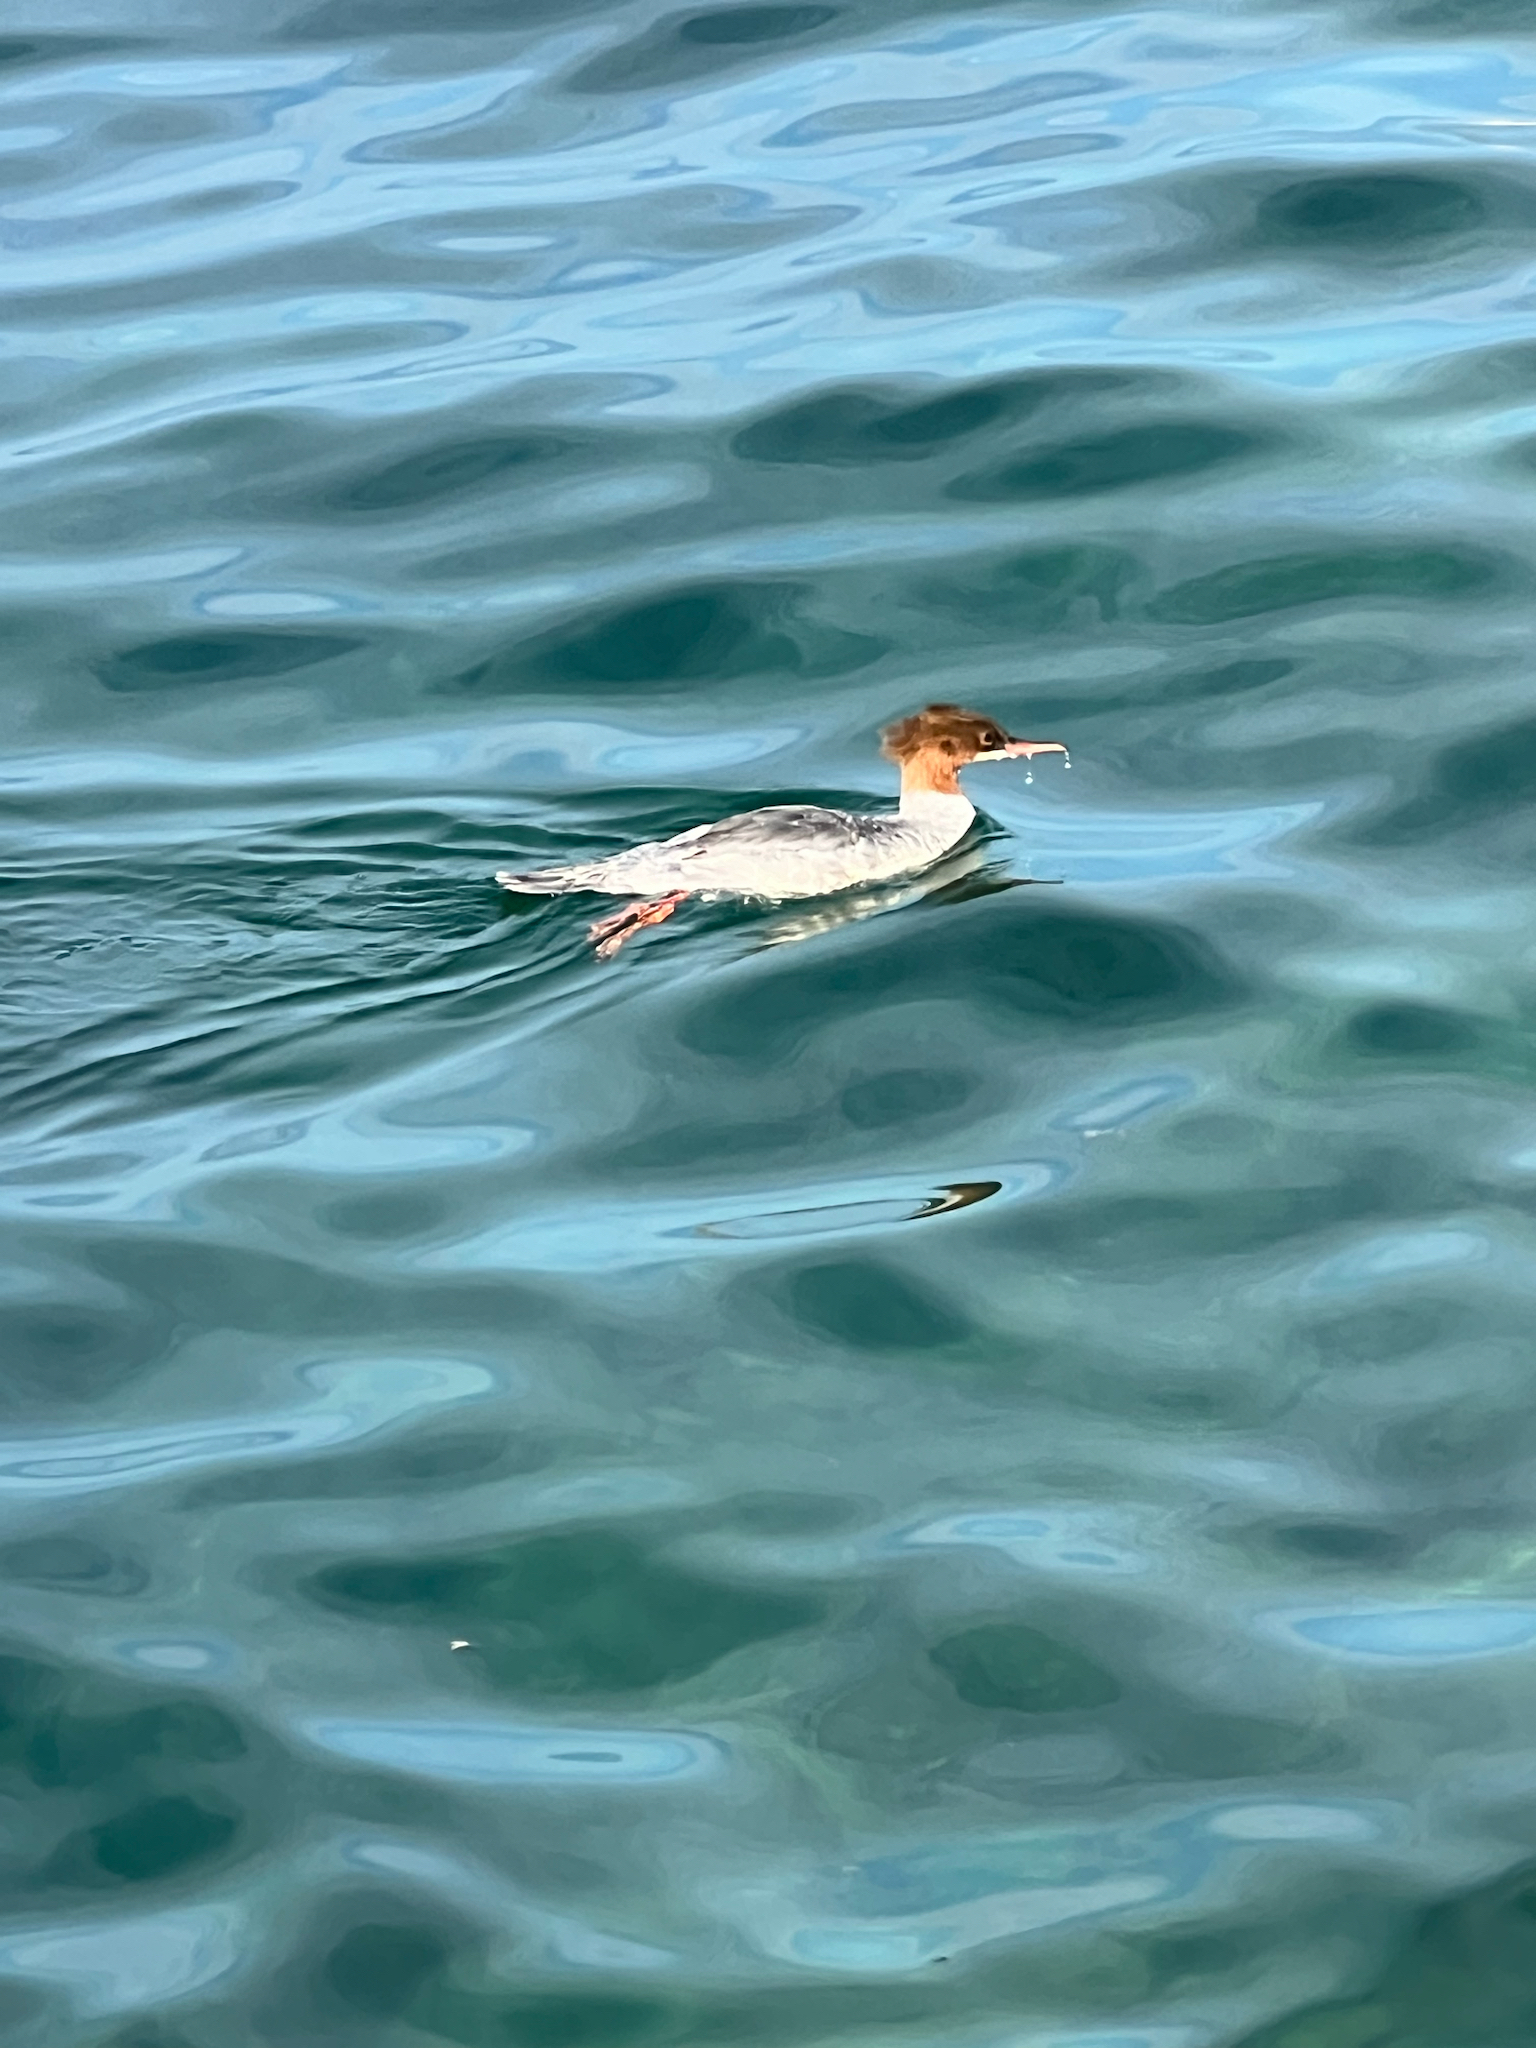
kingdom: Animalia
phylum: Chordata
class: Aves
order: Anseriformes
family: Anatidae
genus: Mergus
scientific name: Mergus merganser
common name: Common merganser
